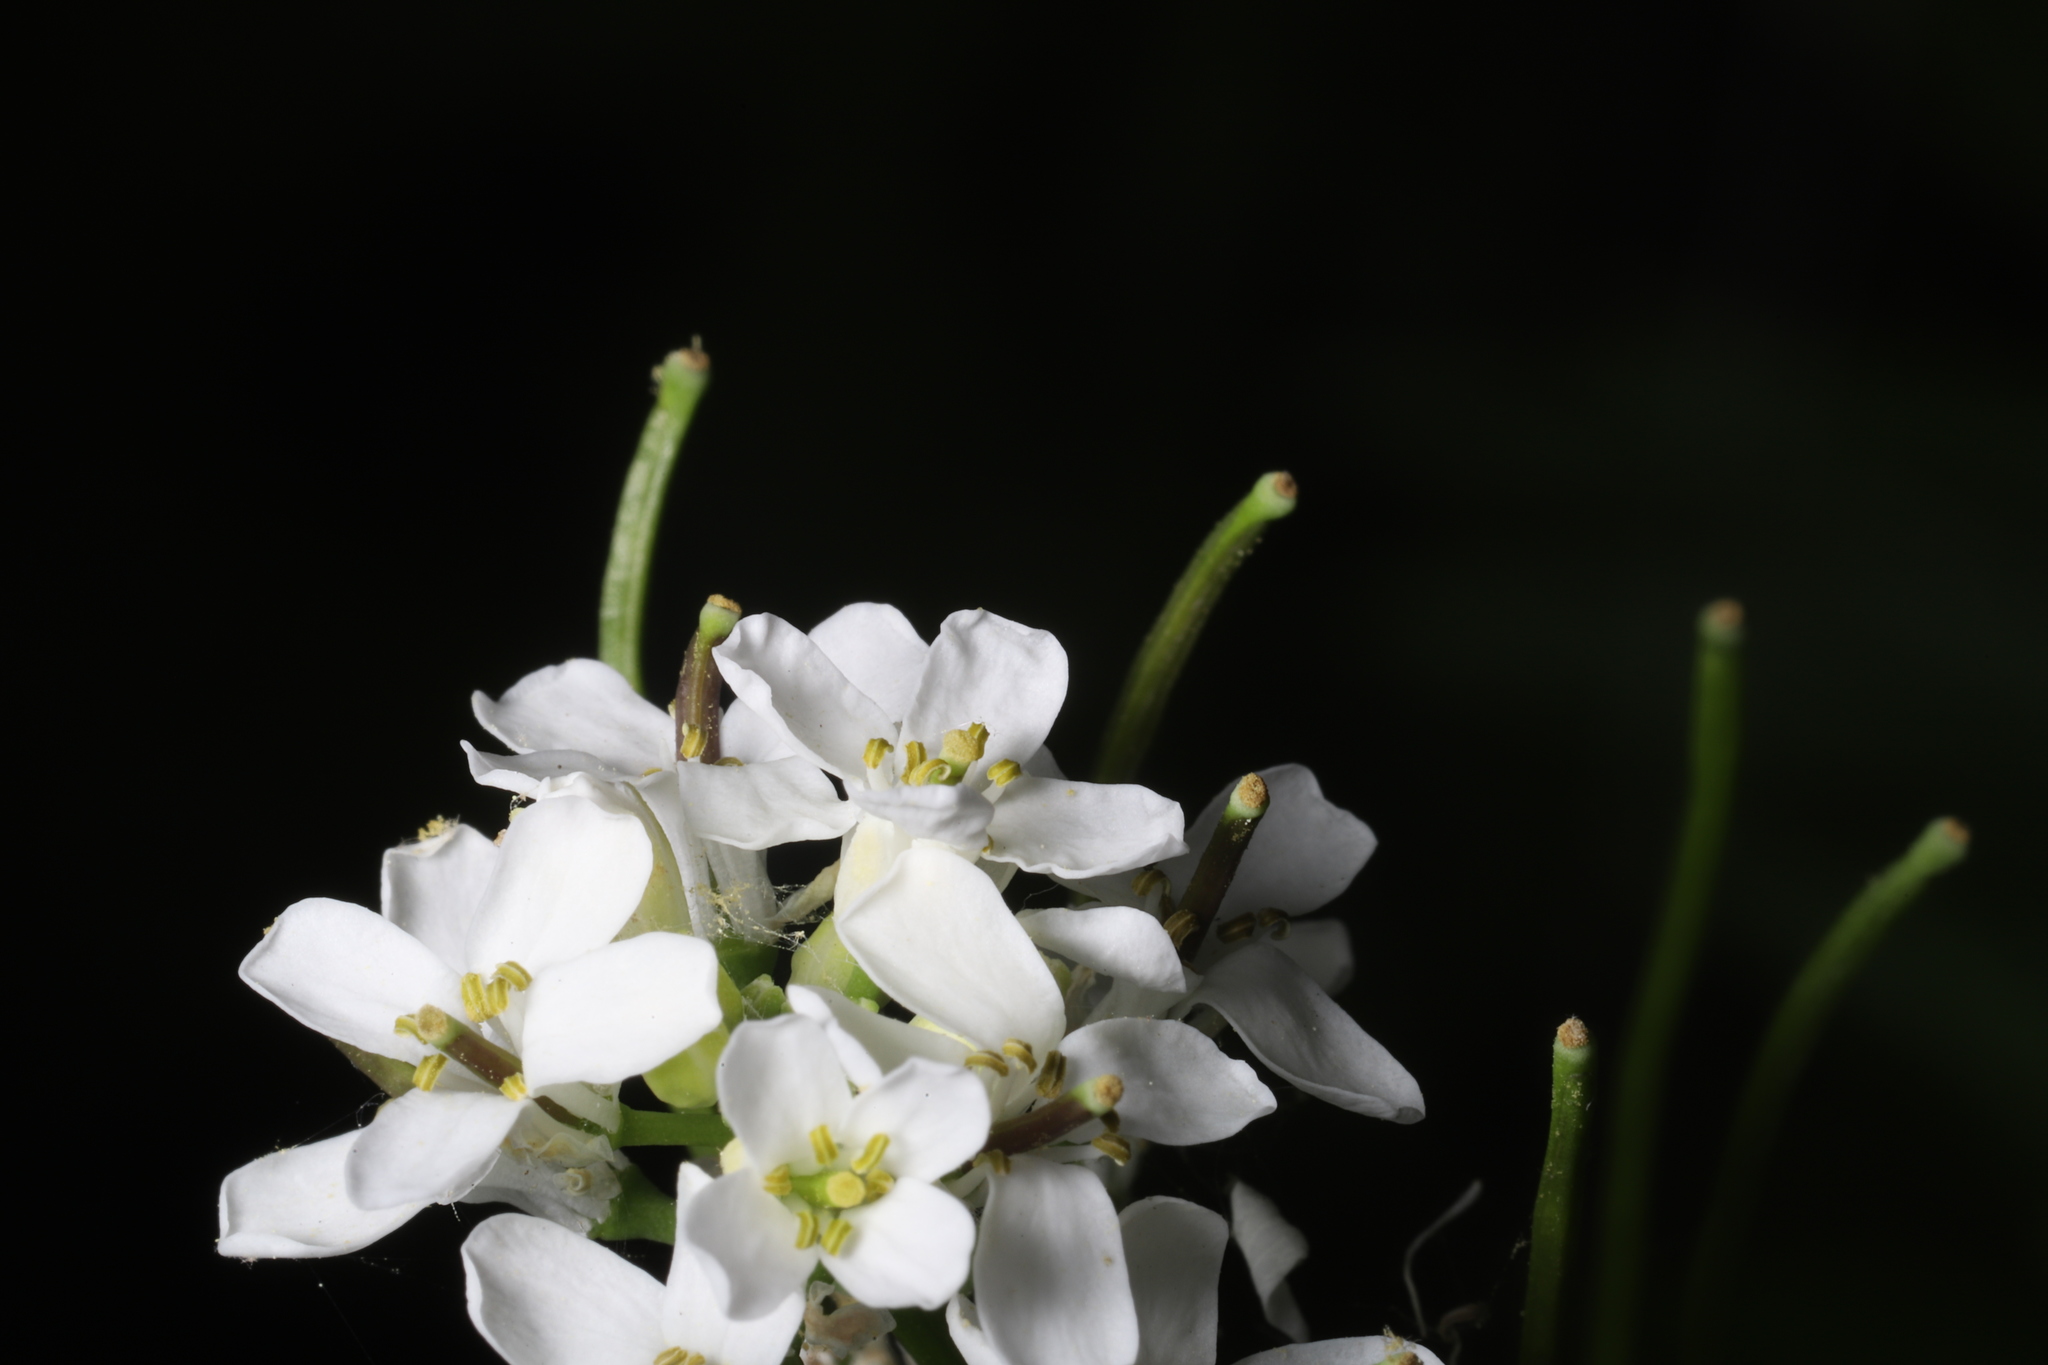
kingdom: Plantae
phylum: Tracheophyta
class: Magnoliopsida
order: Brassicales
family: Brassicaceae
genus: Alliaria
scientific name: Alliaria petiolata
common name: Garlic mustard
